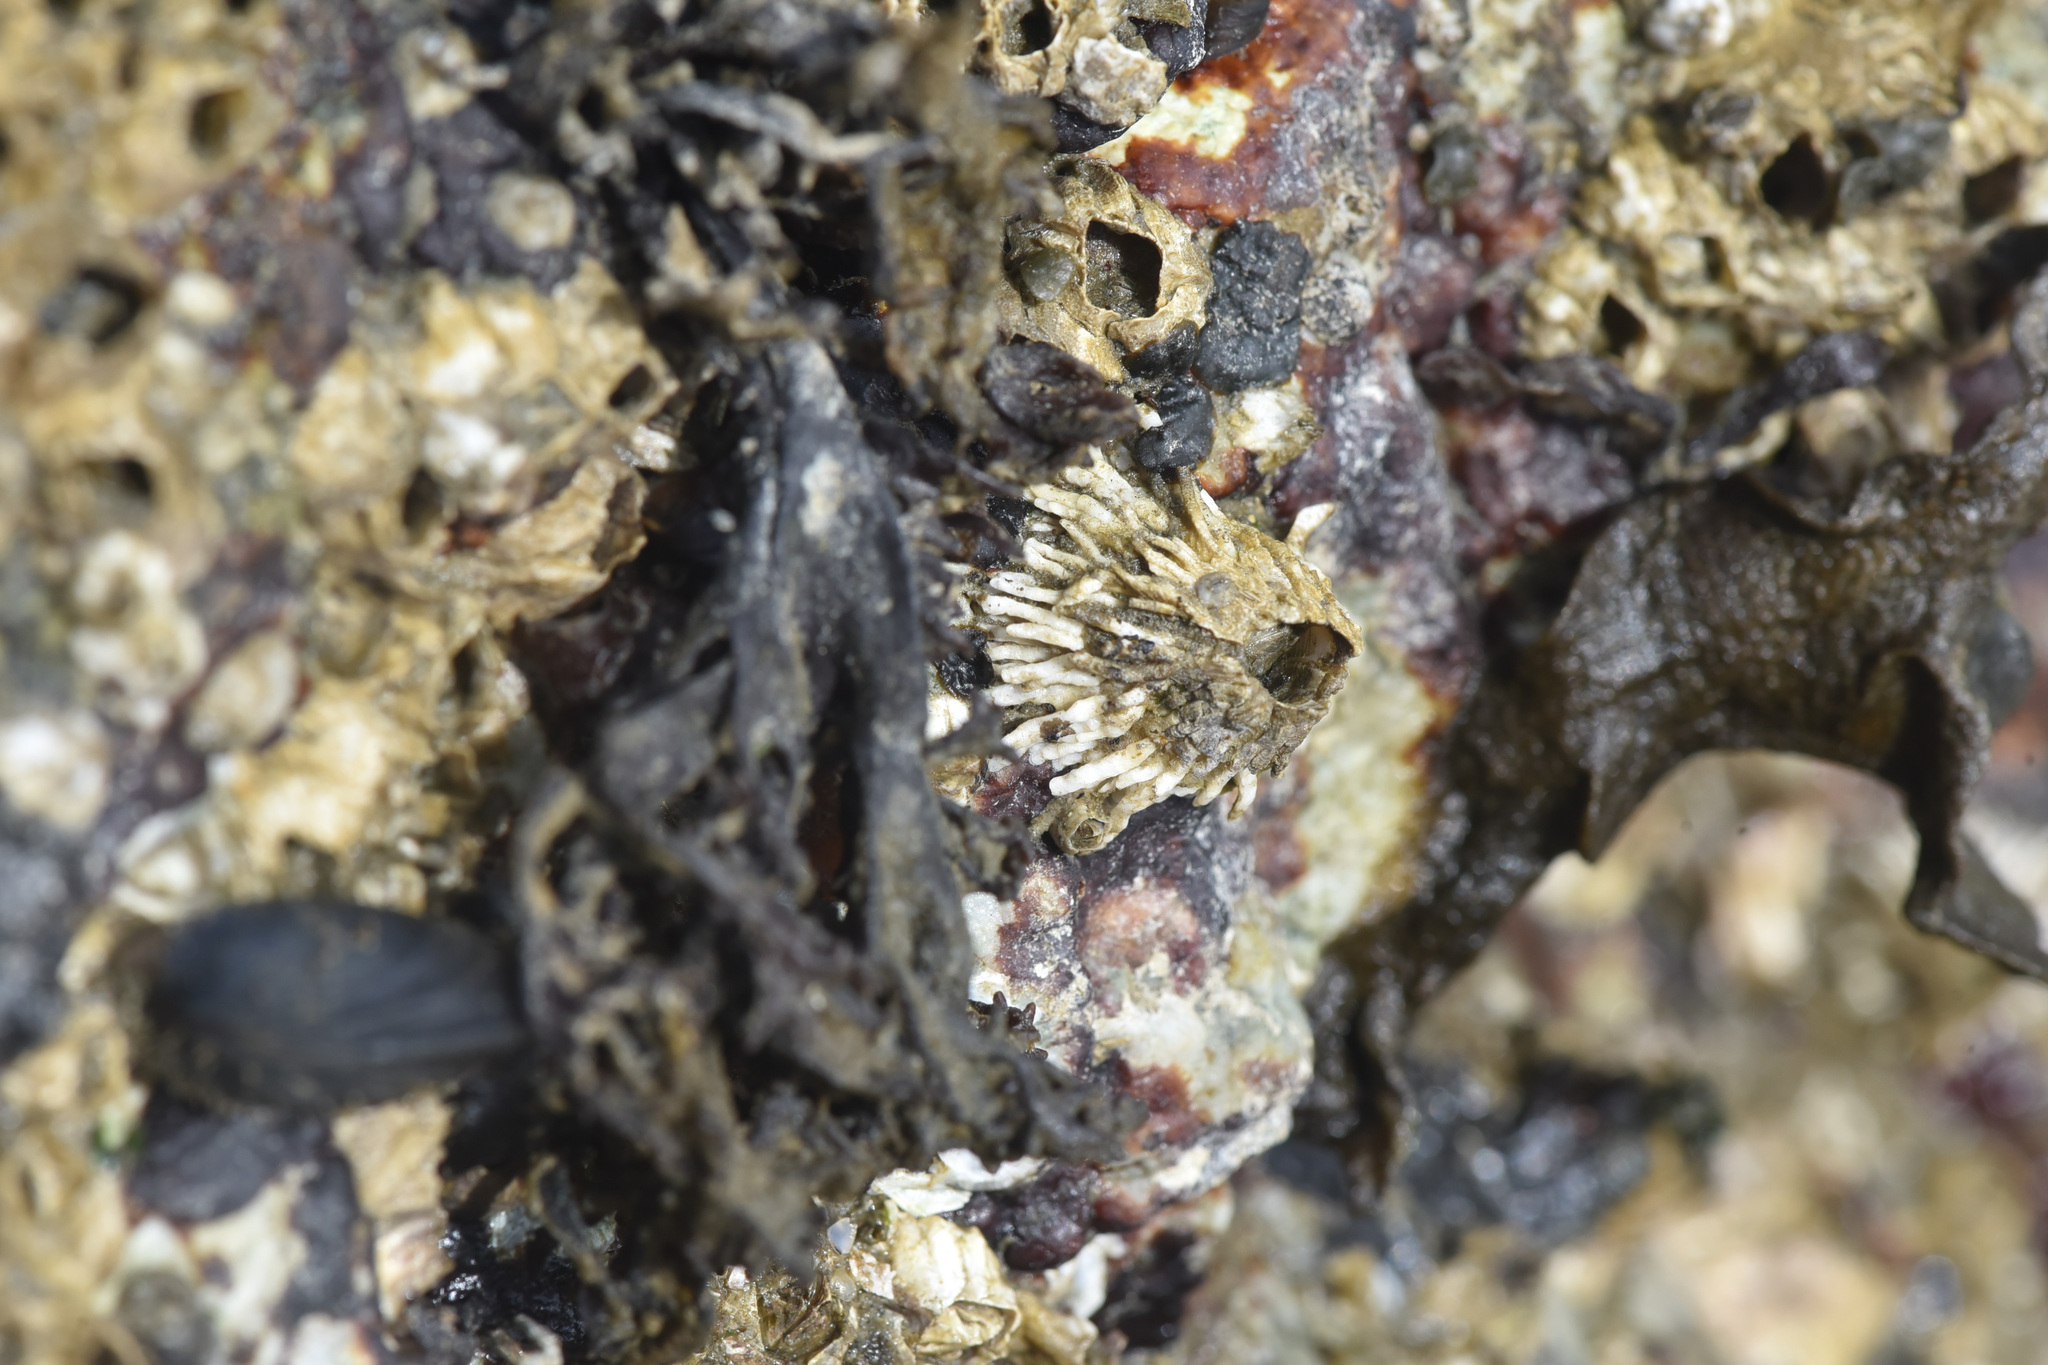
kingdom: Animalia
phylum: Arthropoda
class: Maxillopoda
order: Sessilia
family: Archaeobalanidae
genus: Semibalanus
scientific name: Semibalanus cariosus
